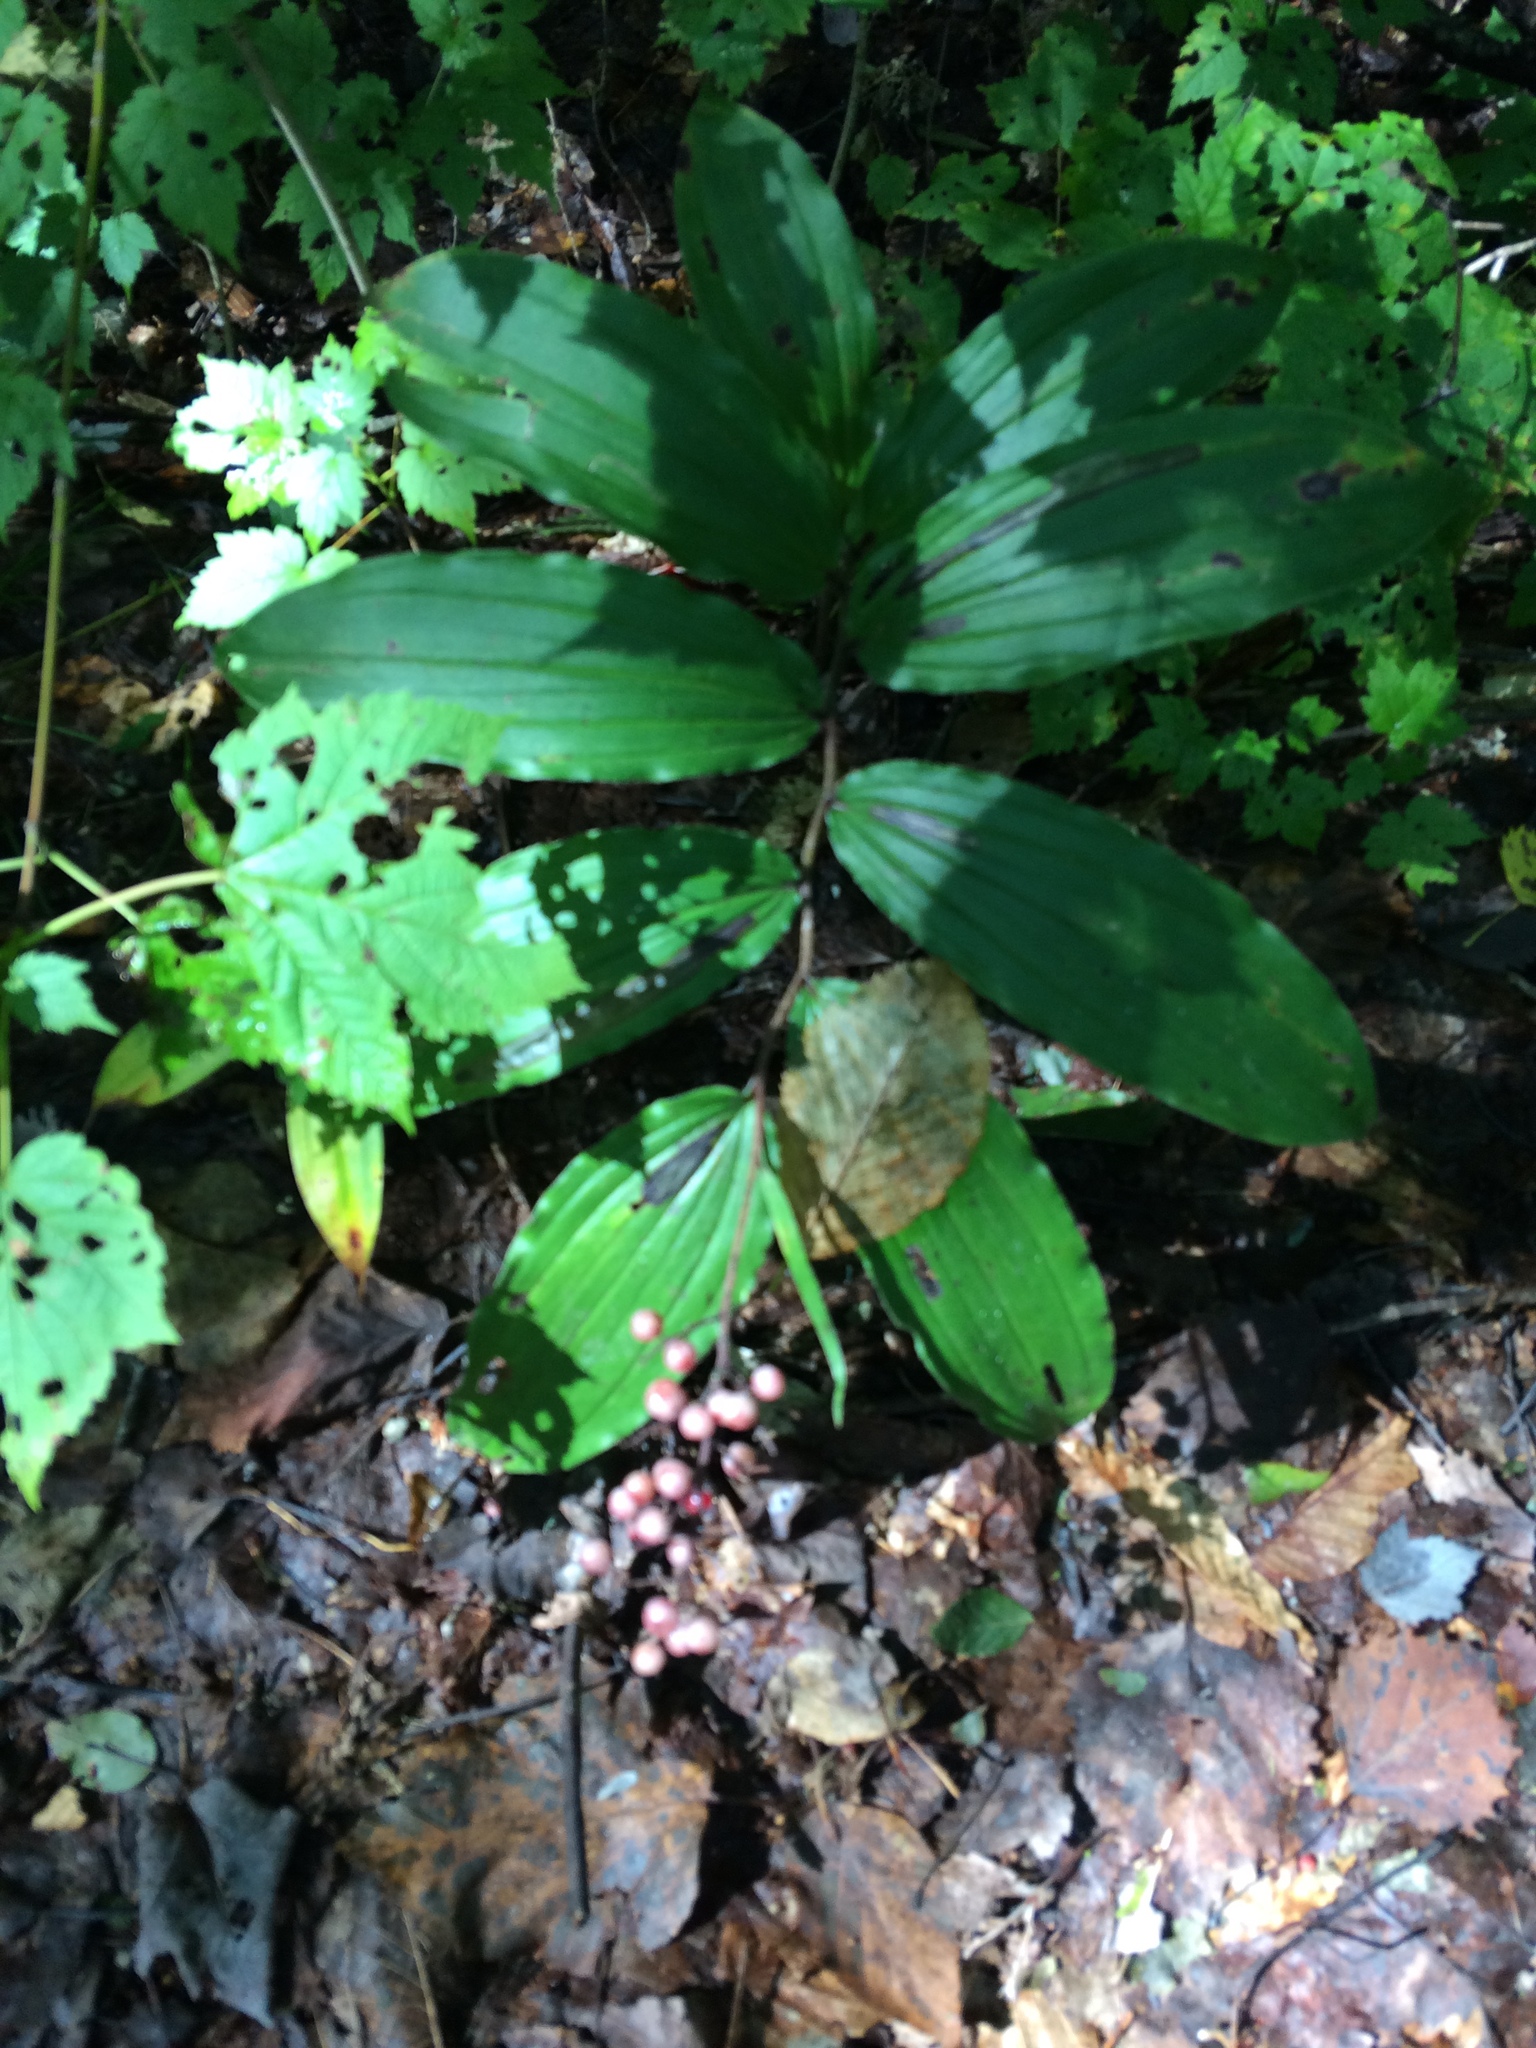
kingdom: Plantae
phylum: Tracheophyta
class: Liliopsida
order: Asparagales
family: Asparagaceae
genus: Maianthemum
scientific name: Maianthemum racemosum
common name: False spikenard
